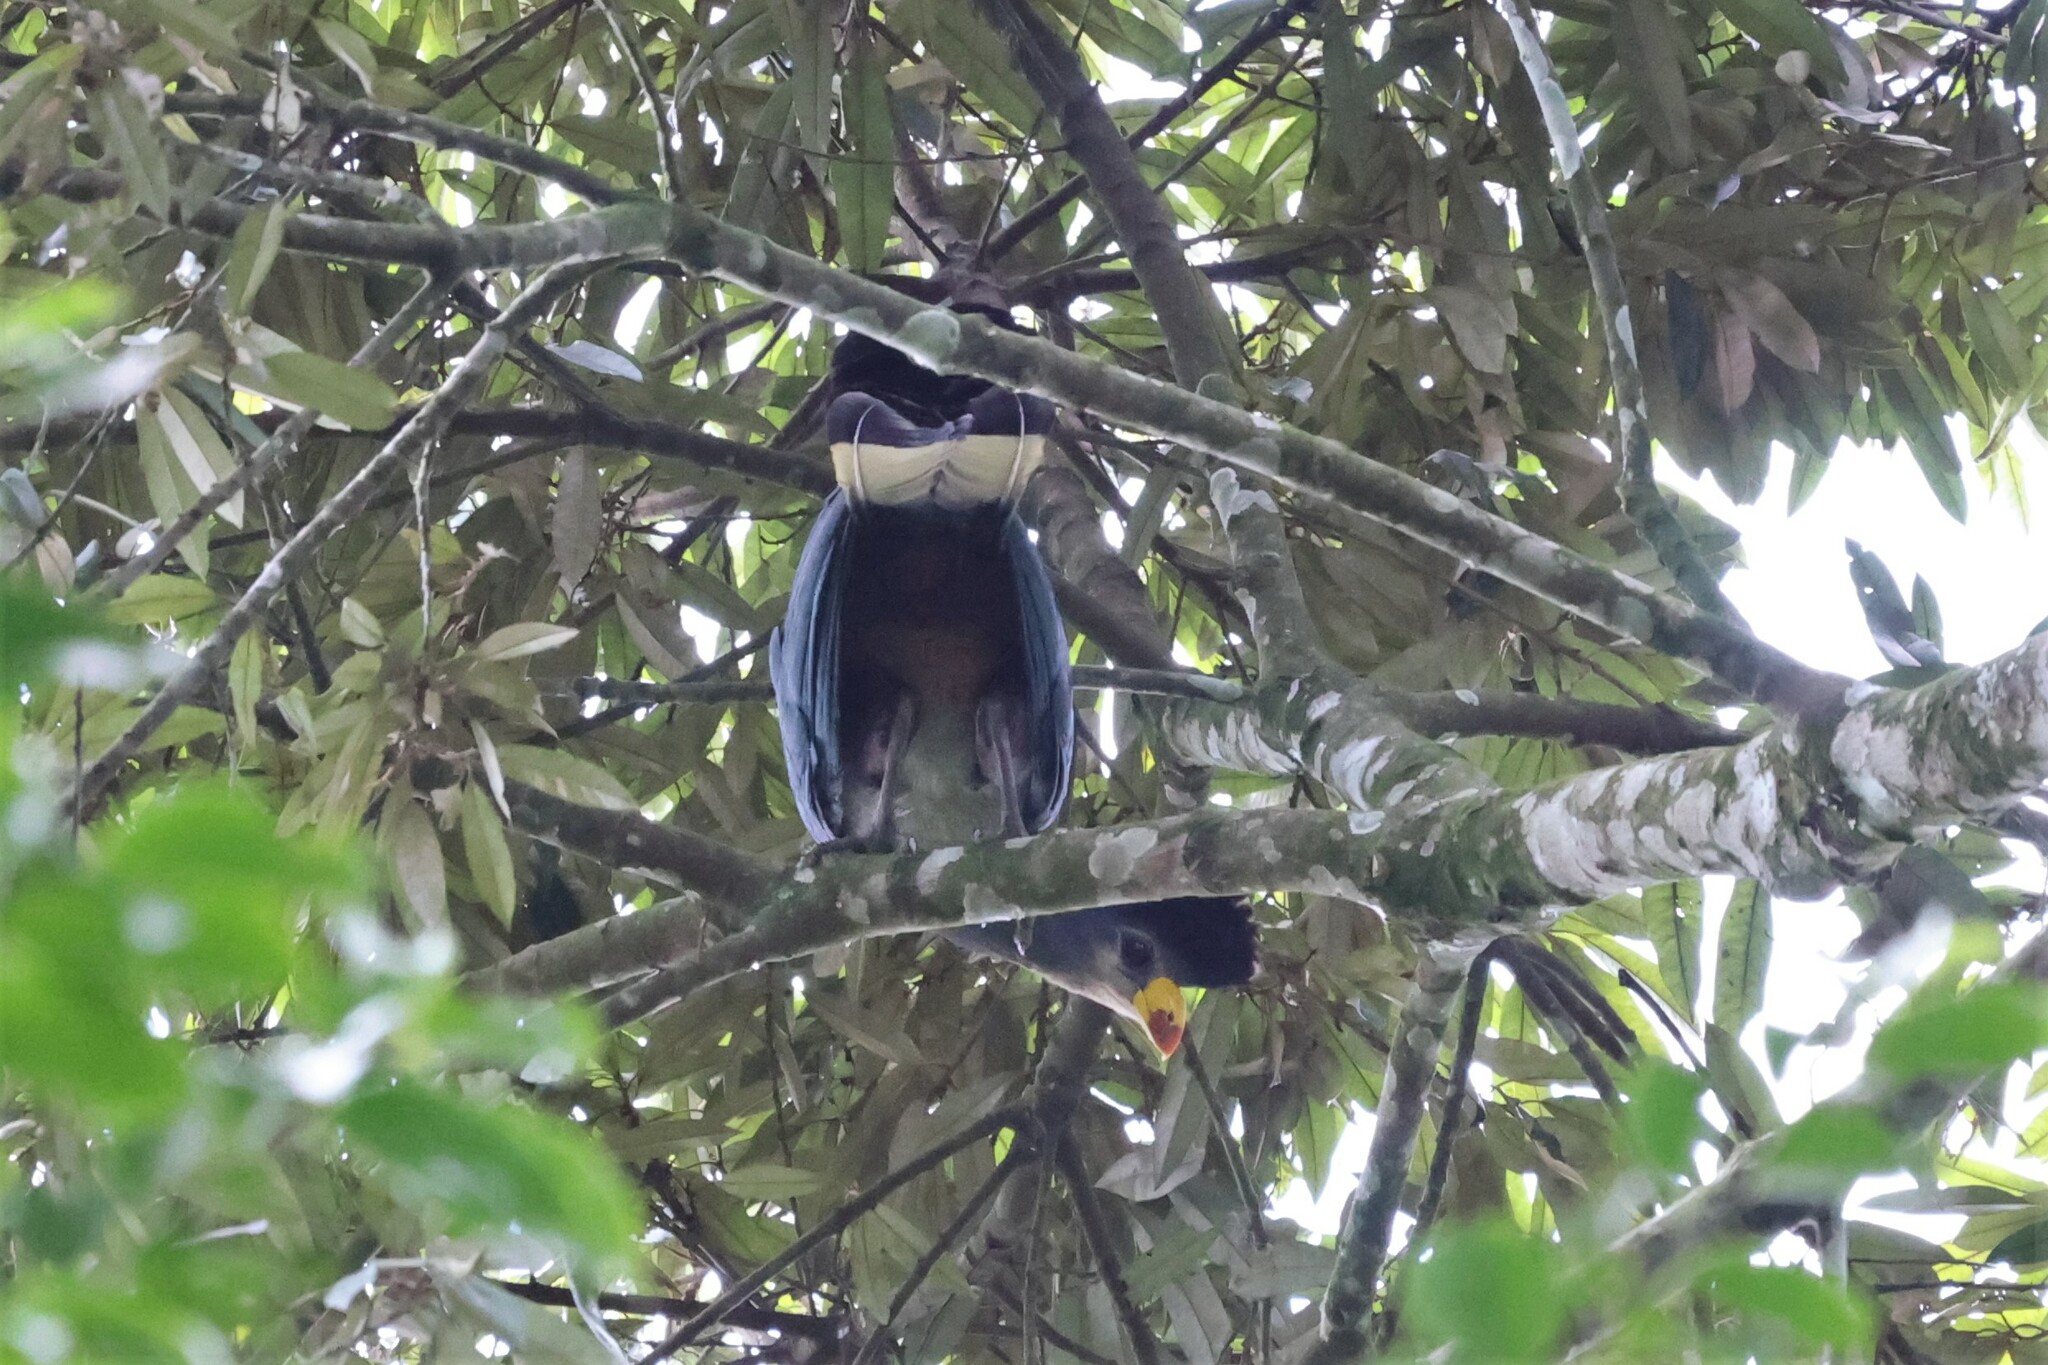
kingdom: Animalia
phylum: Chordata
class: Aves
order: Musophagiformes
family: Musophagidae
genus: Corythaeola
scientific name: Corythaeola cristata
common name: Great blue turaco
